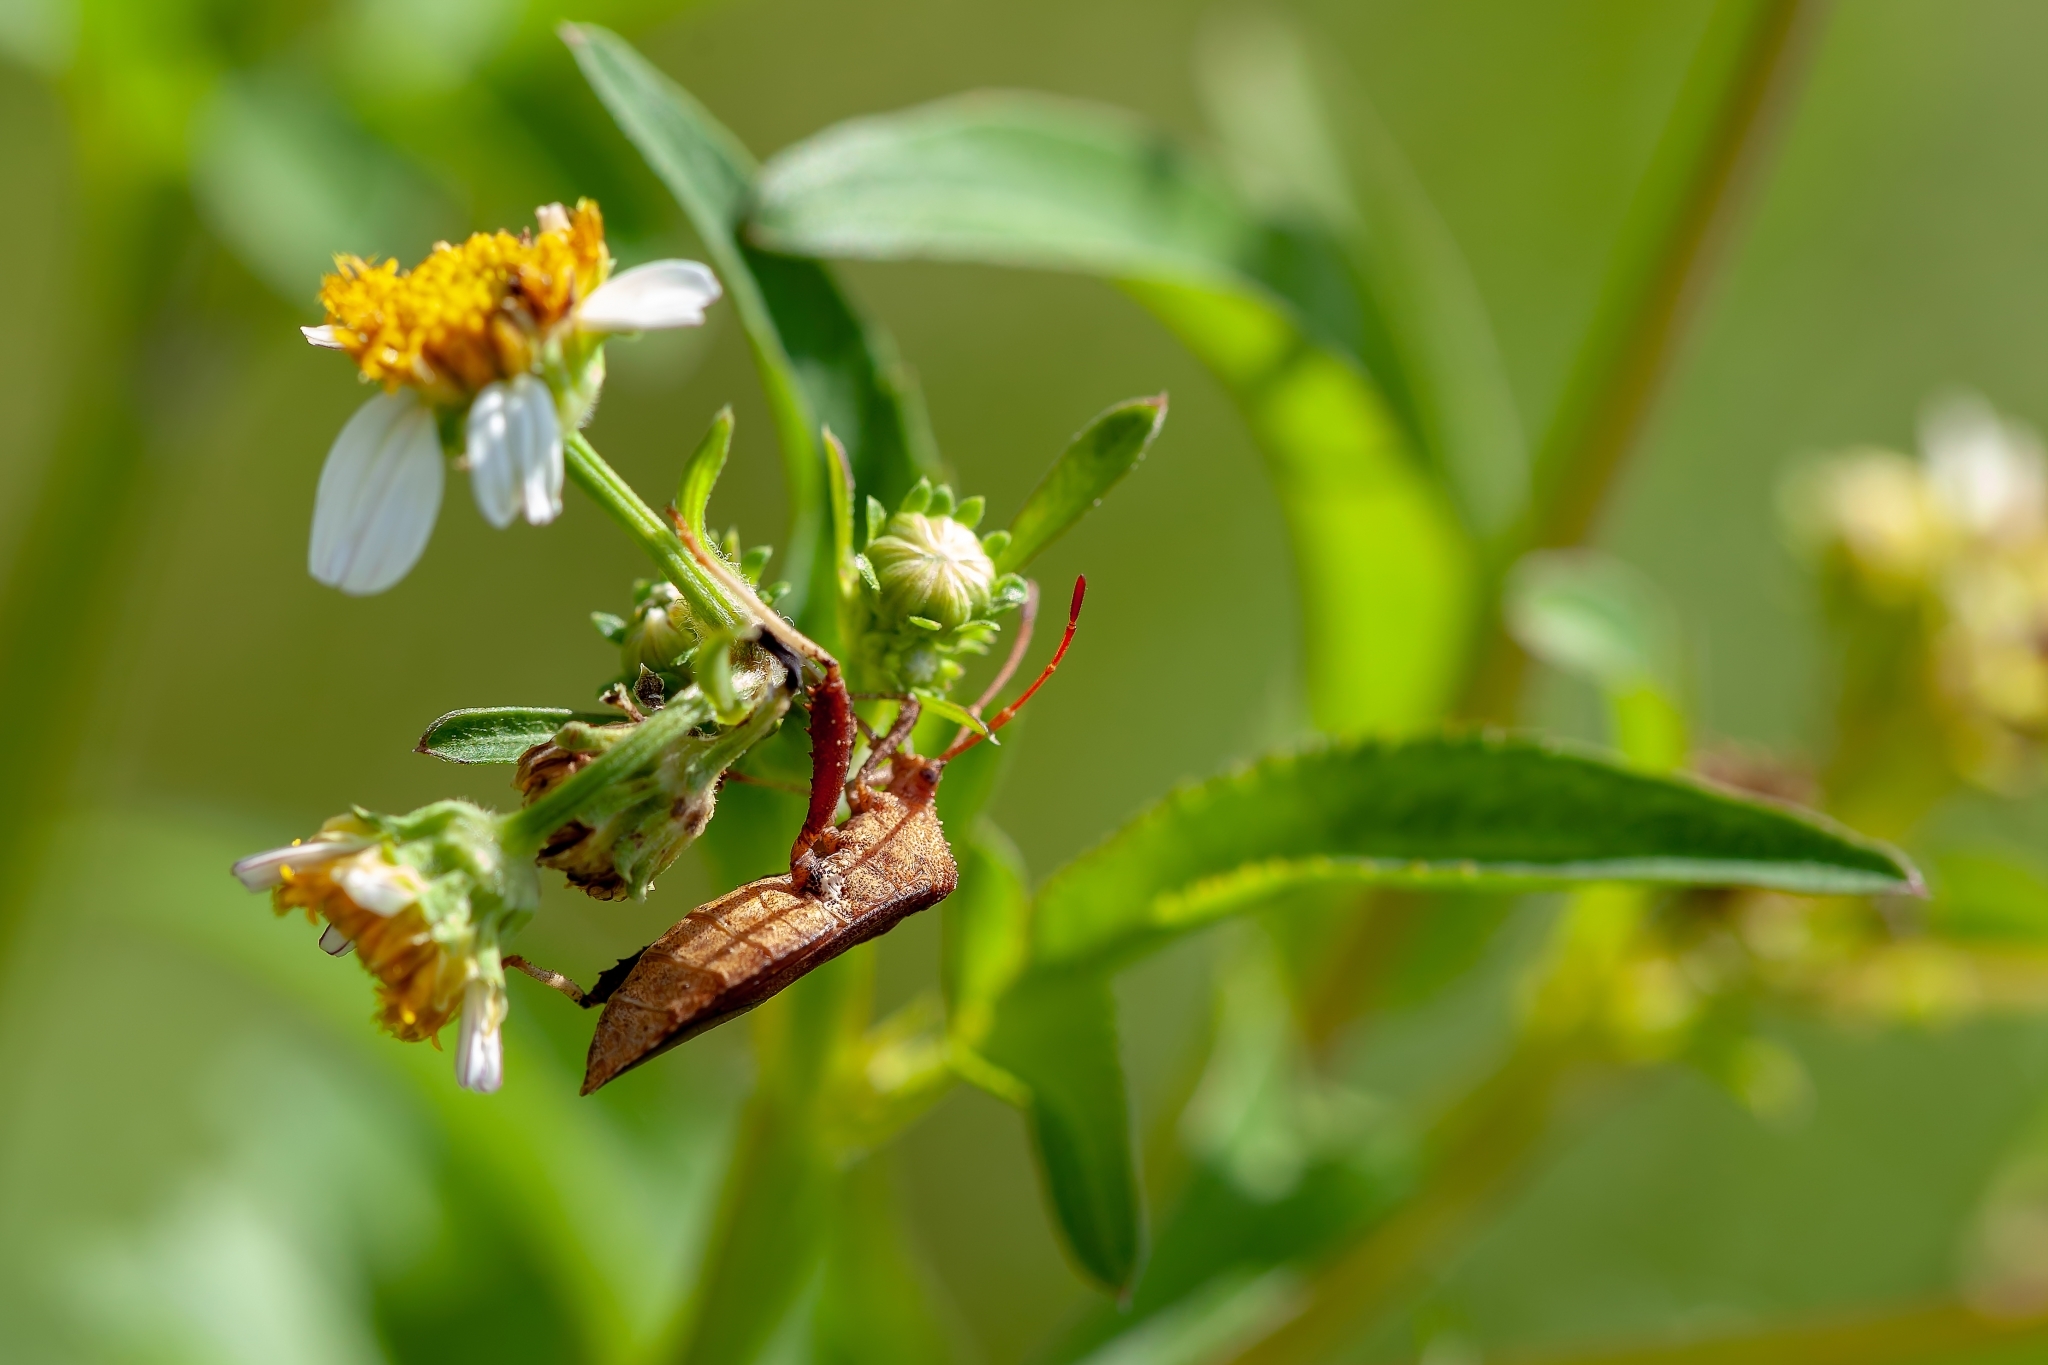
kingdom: Animalia
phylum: Arthropoda
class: Insecta
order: Hemiptera
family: Coreidae
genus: Euthochtha
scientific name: Euthochtha galeator
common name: Helmeted squash bug
